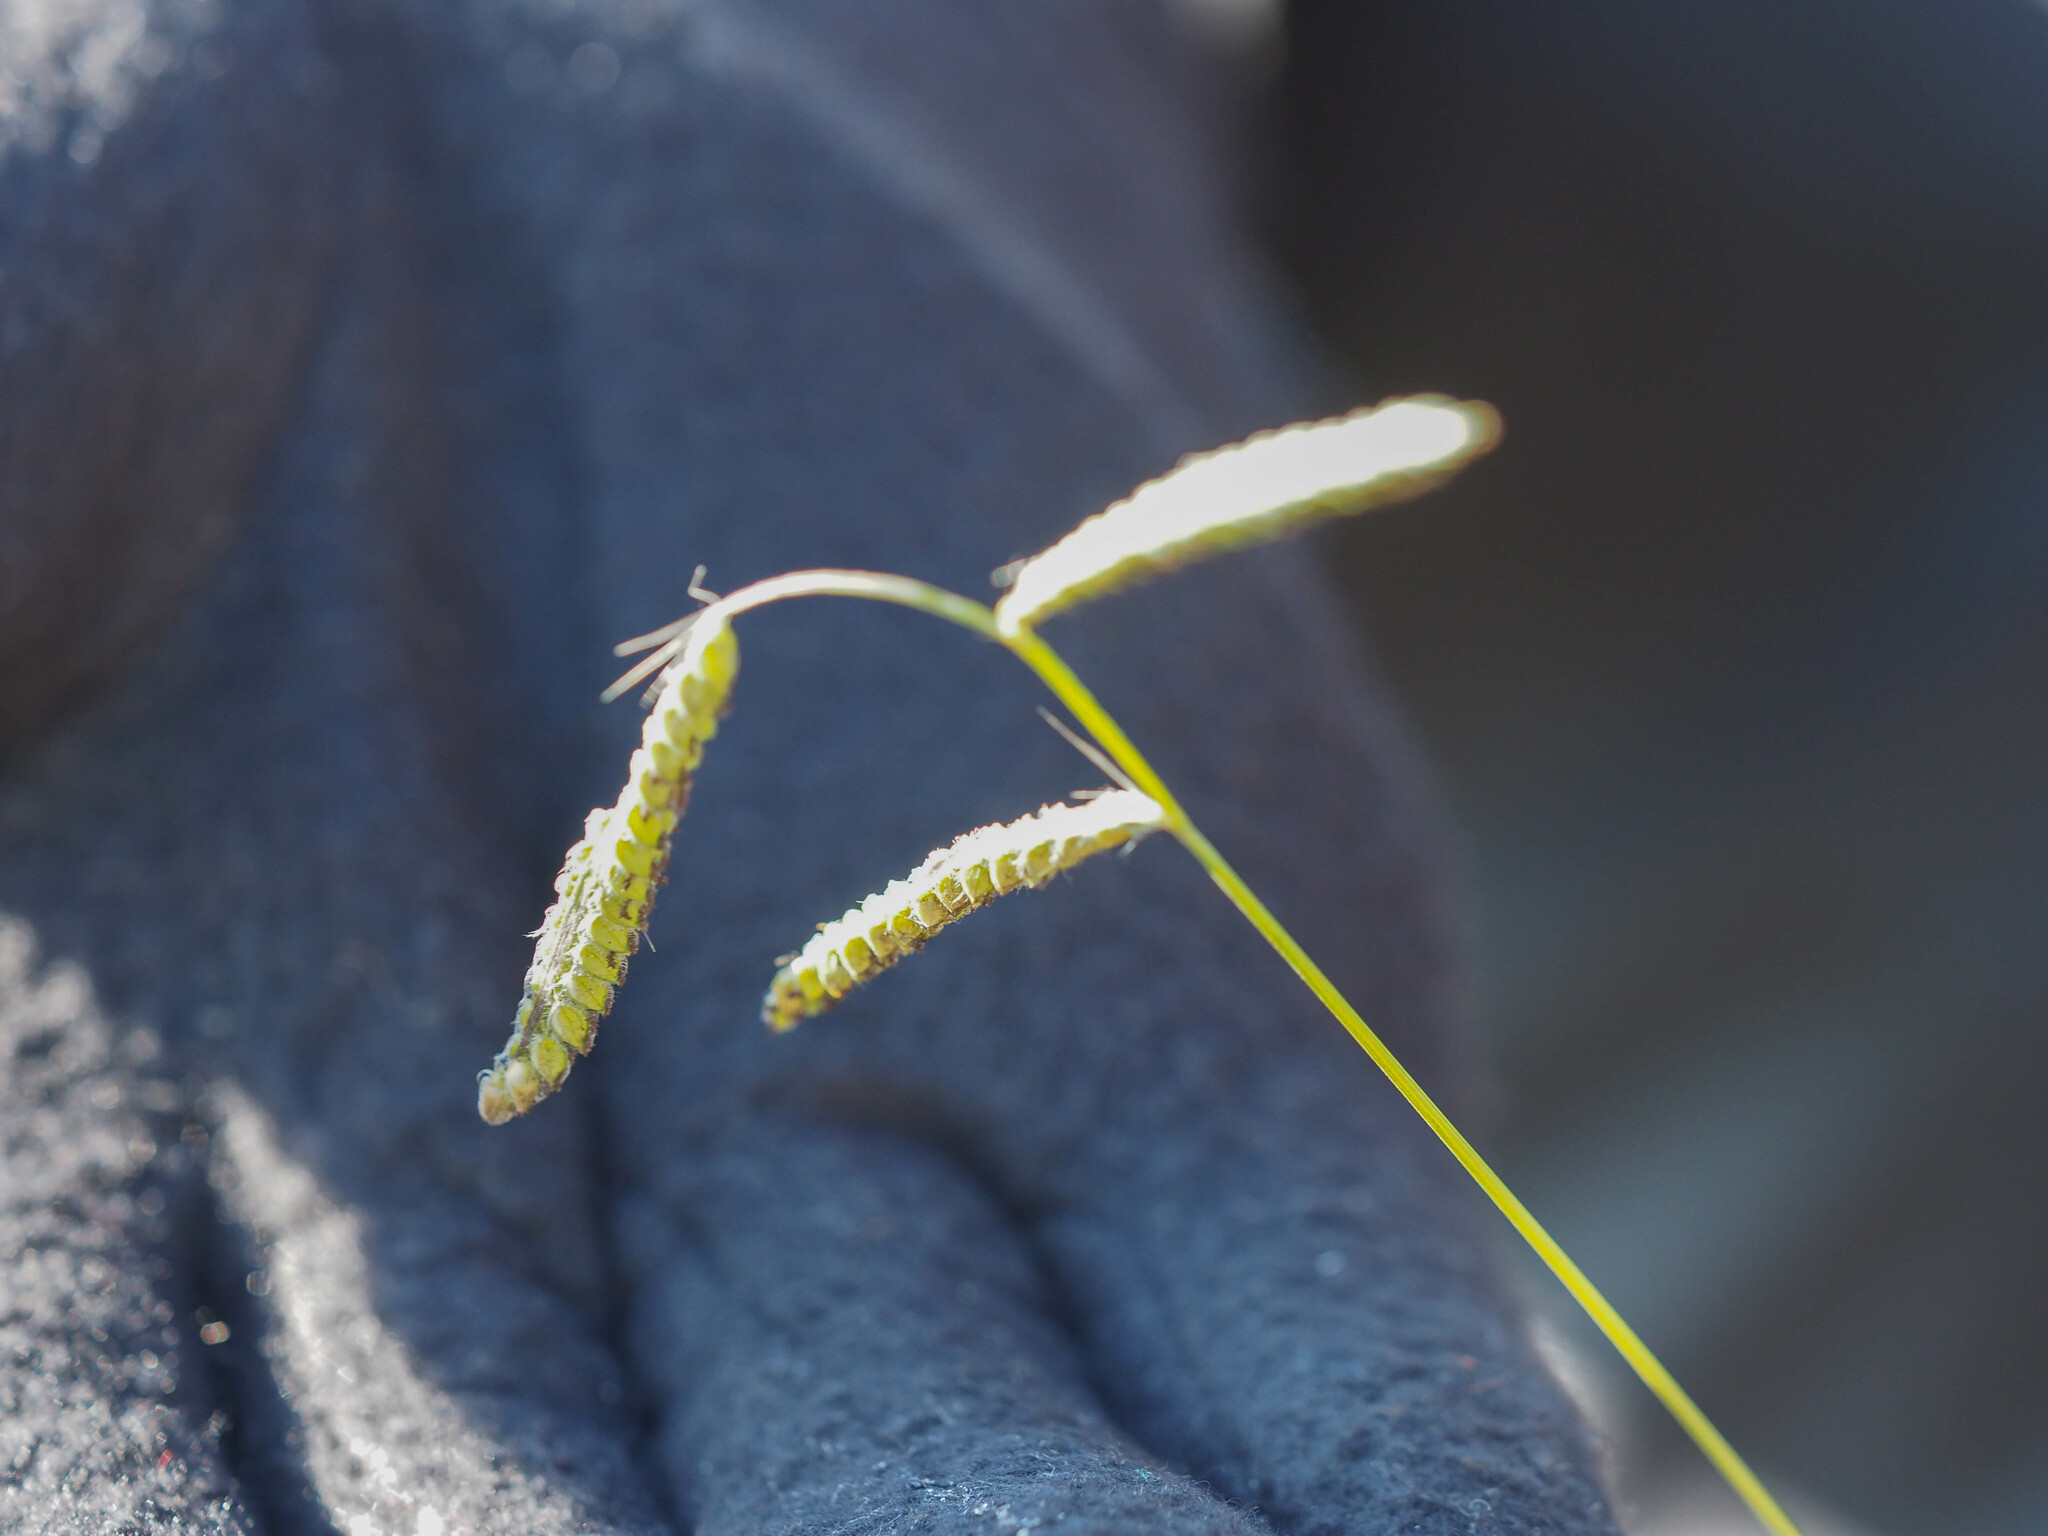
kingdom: Plantae
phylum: Tracheophyta
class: Liliopsida
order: Poales
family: Poaceae
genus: Paspalum
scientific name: Paspalum dilatatum
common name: Dallisgrass
